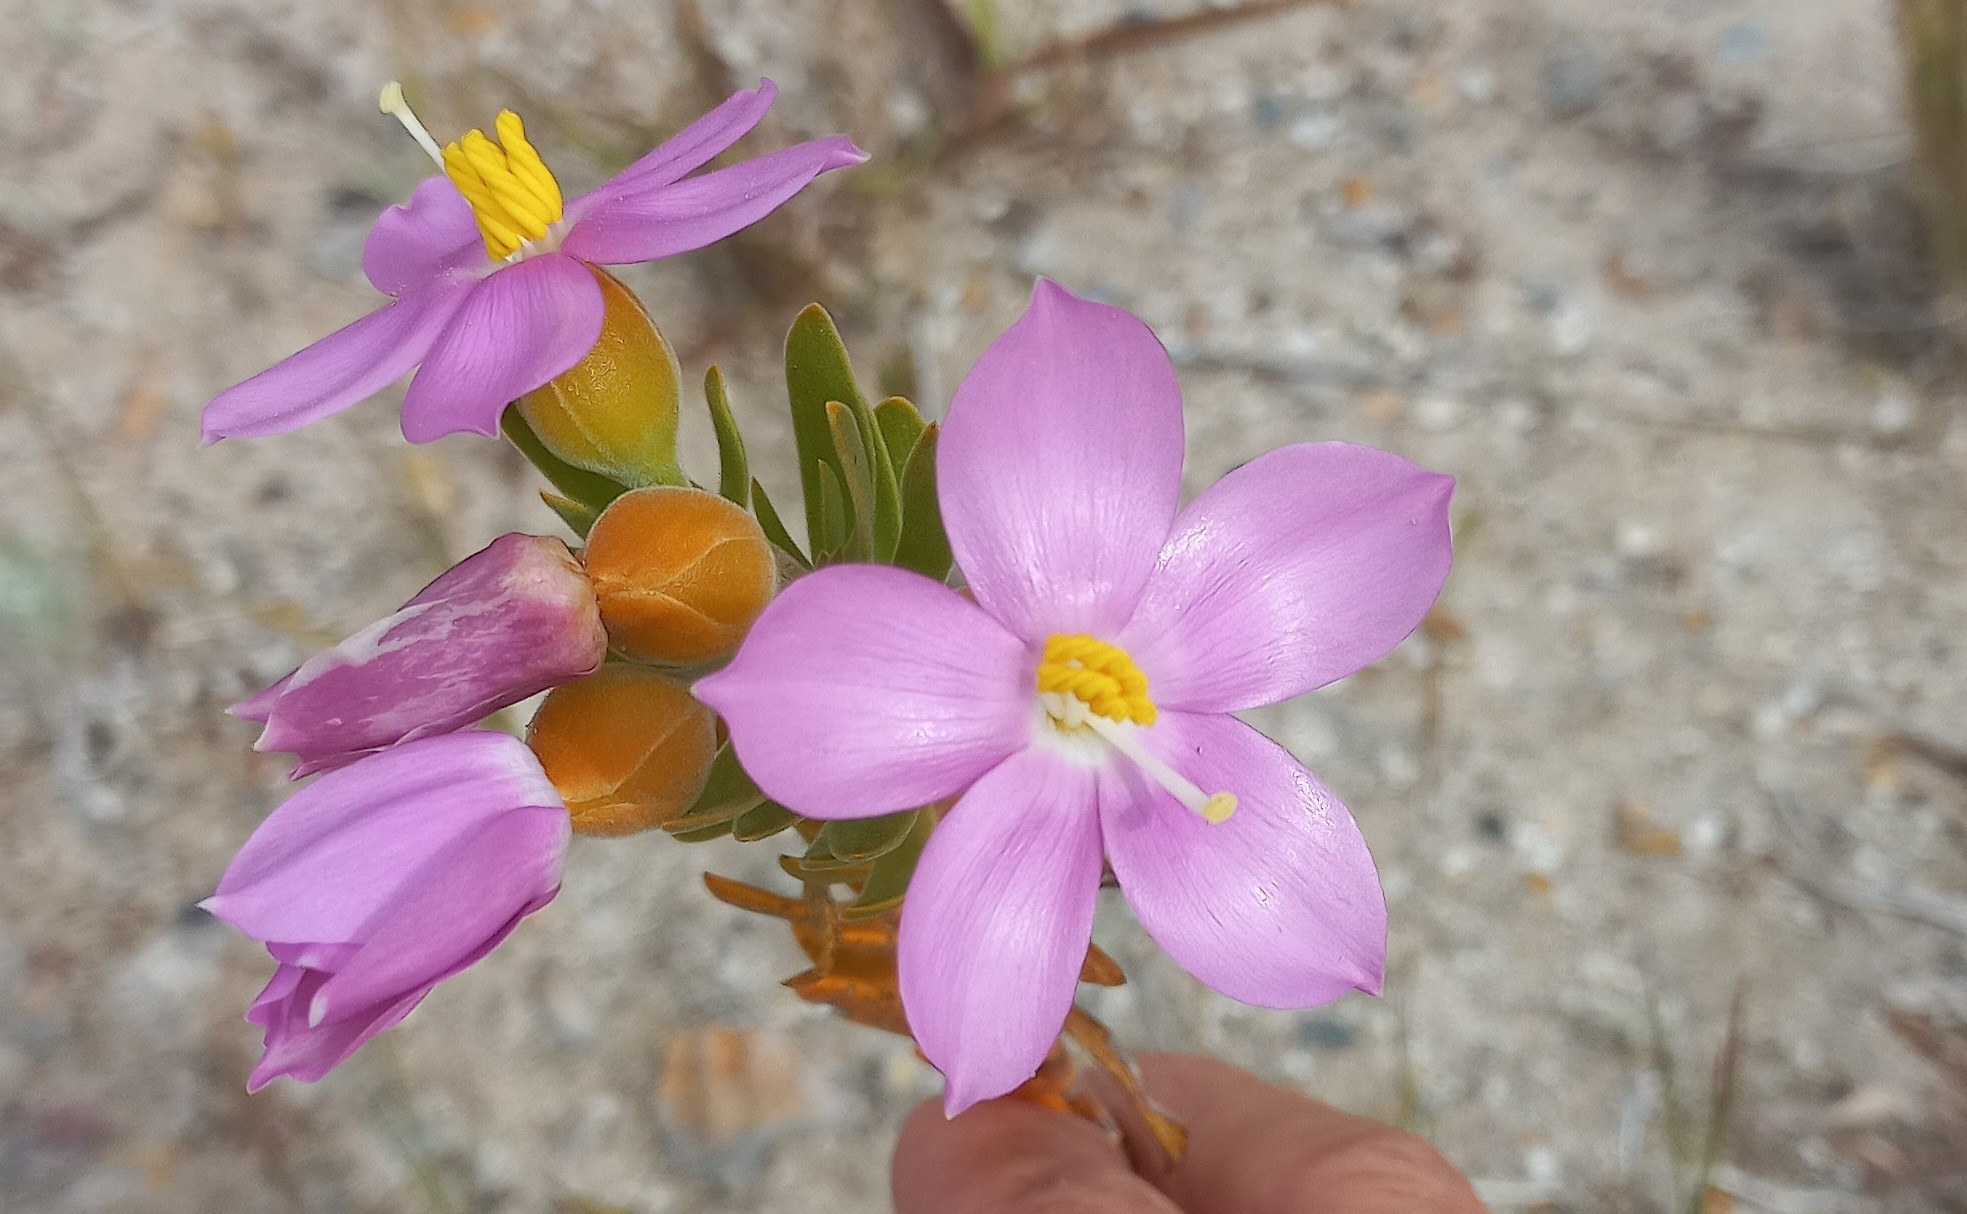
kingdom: Plantae
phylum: Tracheophyta
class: Magnoliopsida
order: Gentianales
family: Gentianaceae
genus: Orphium
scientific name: Orphium frutescens
